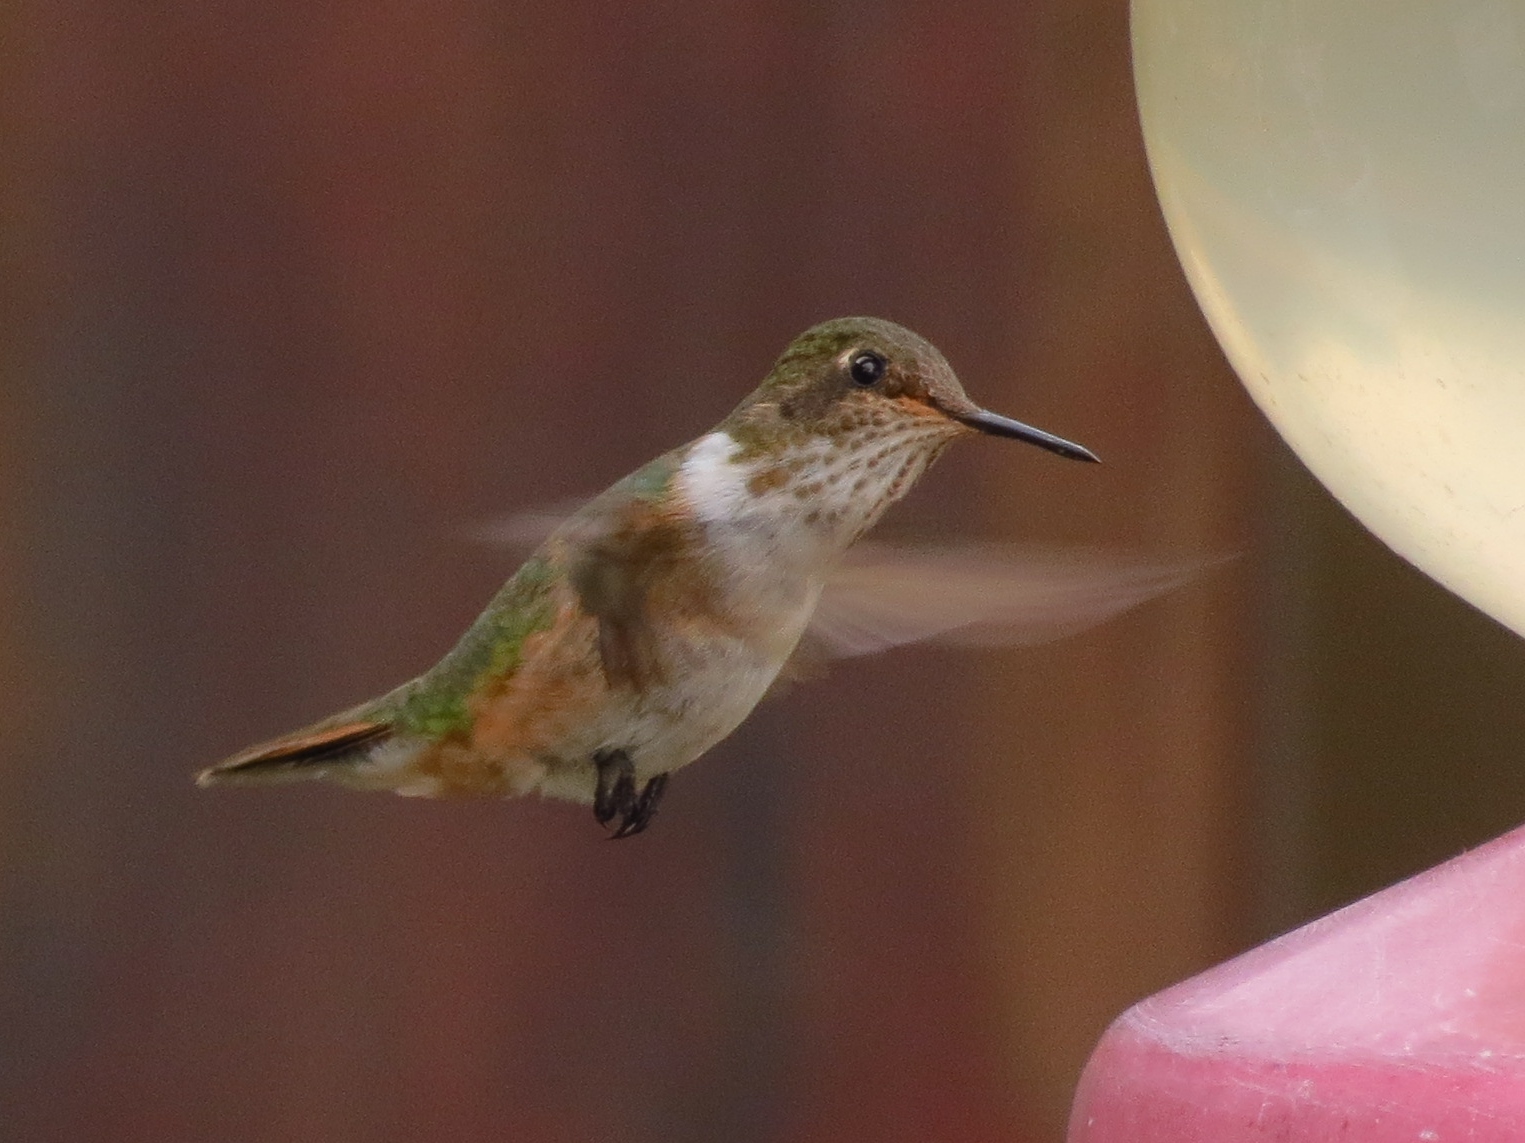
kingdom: Animalia
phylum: Chordata
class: Aves
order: Apodiformes
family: Trochilidae
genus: Selasphorus
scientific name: Selasphorus flammula
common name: Volcano hummingbird
